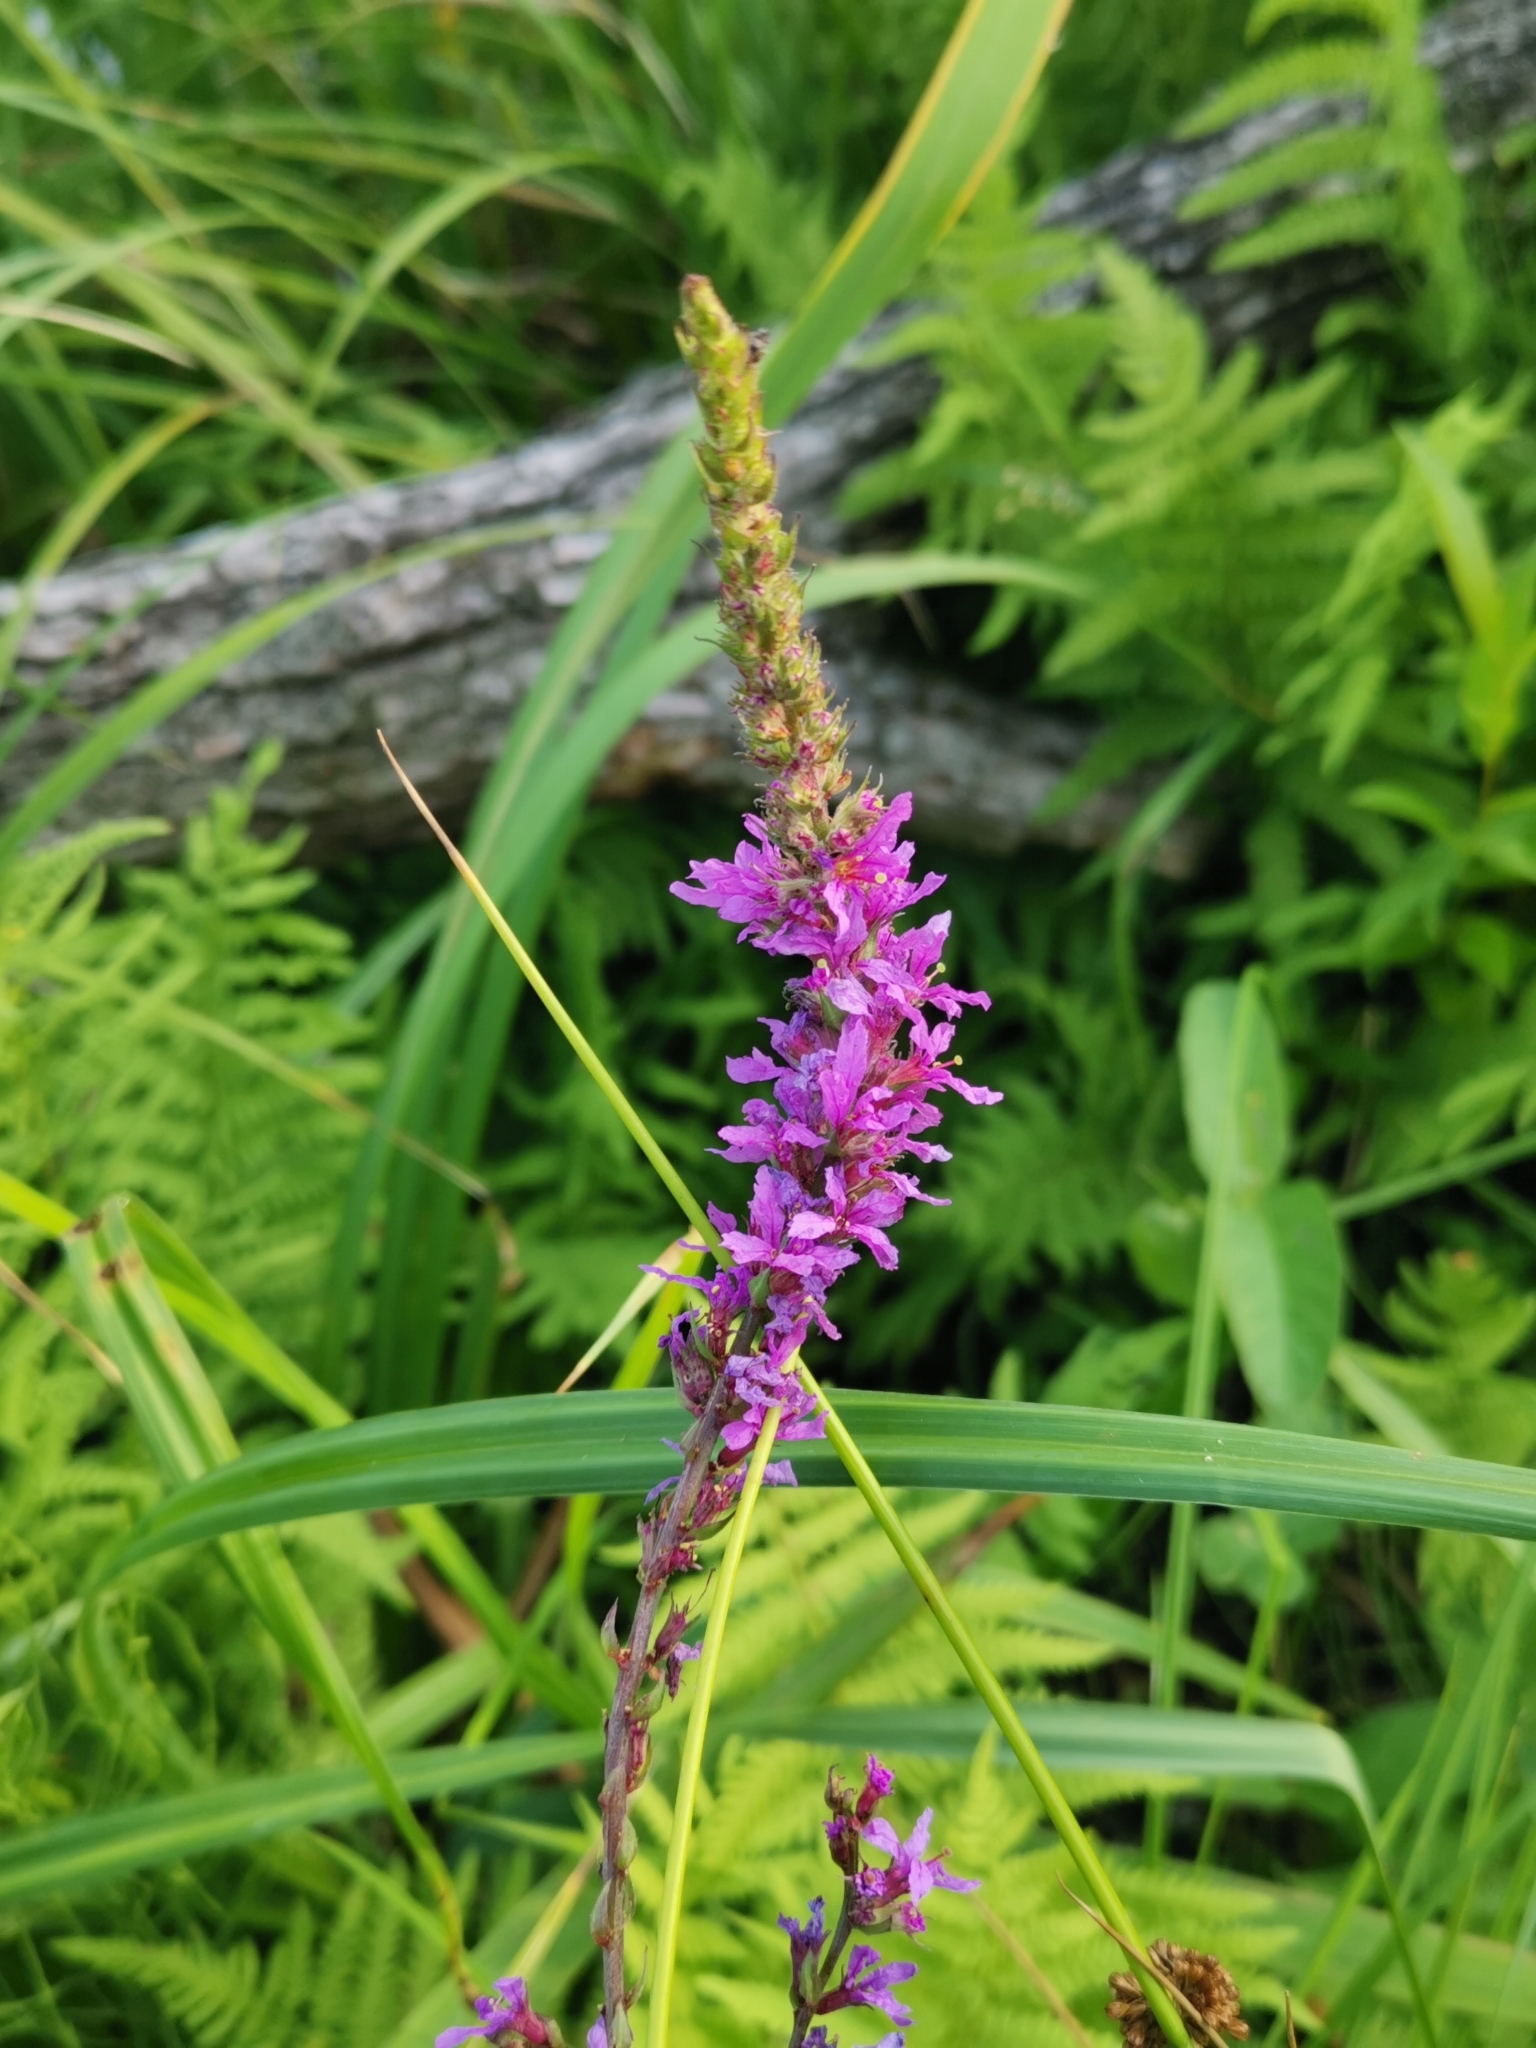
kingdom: Plantae
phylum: Tracheophyta
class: Magnoliopsida
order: Myrtales
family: Lythraceae
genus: Lythrum
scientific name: Lythrum salicaria
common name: Purple loosestrife
